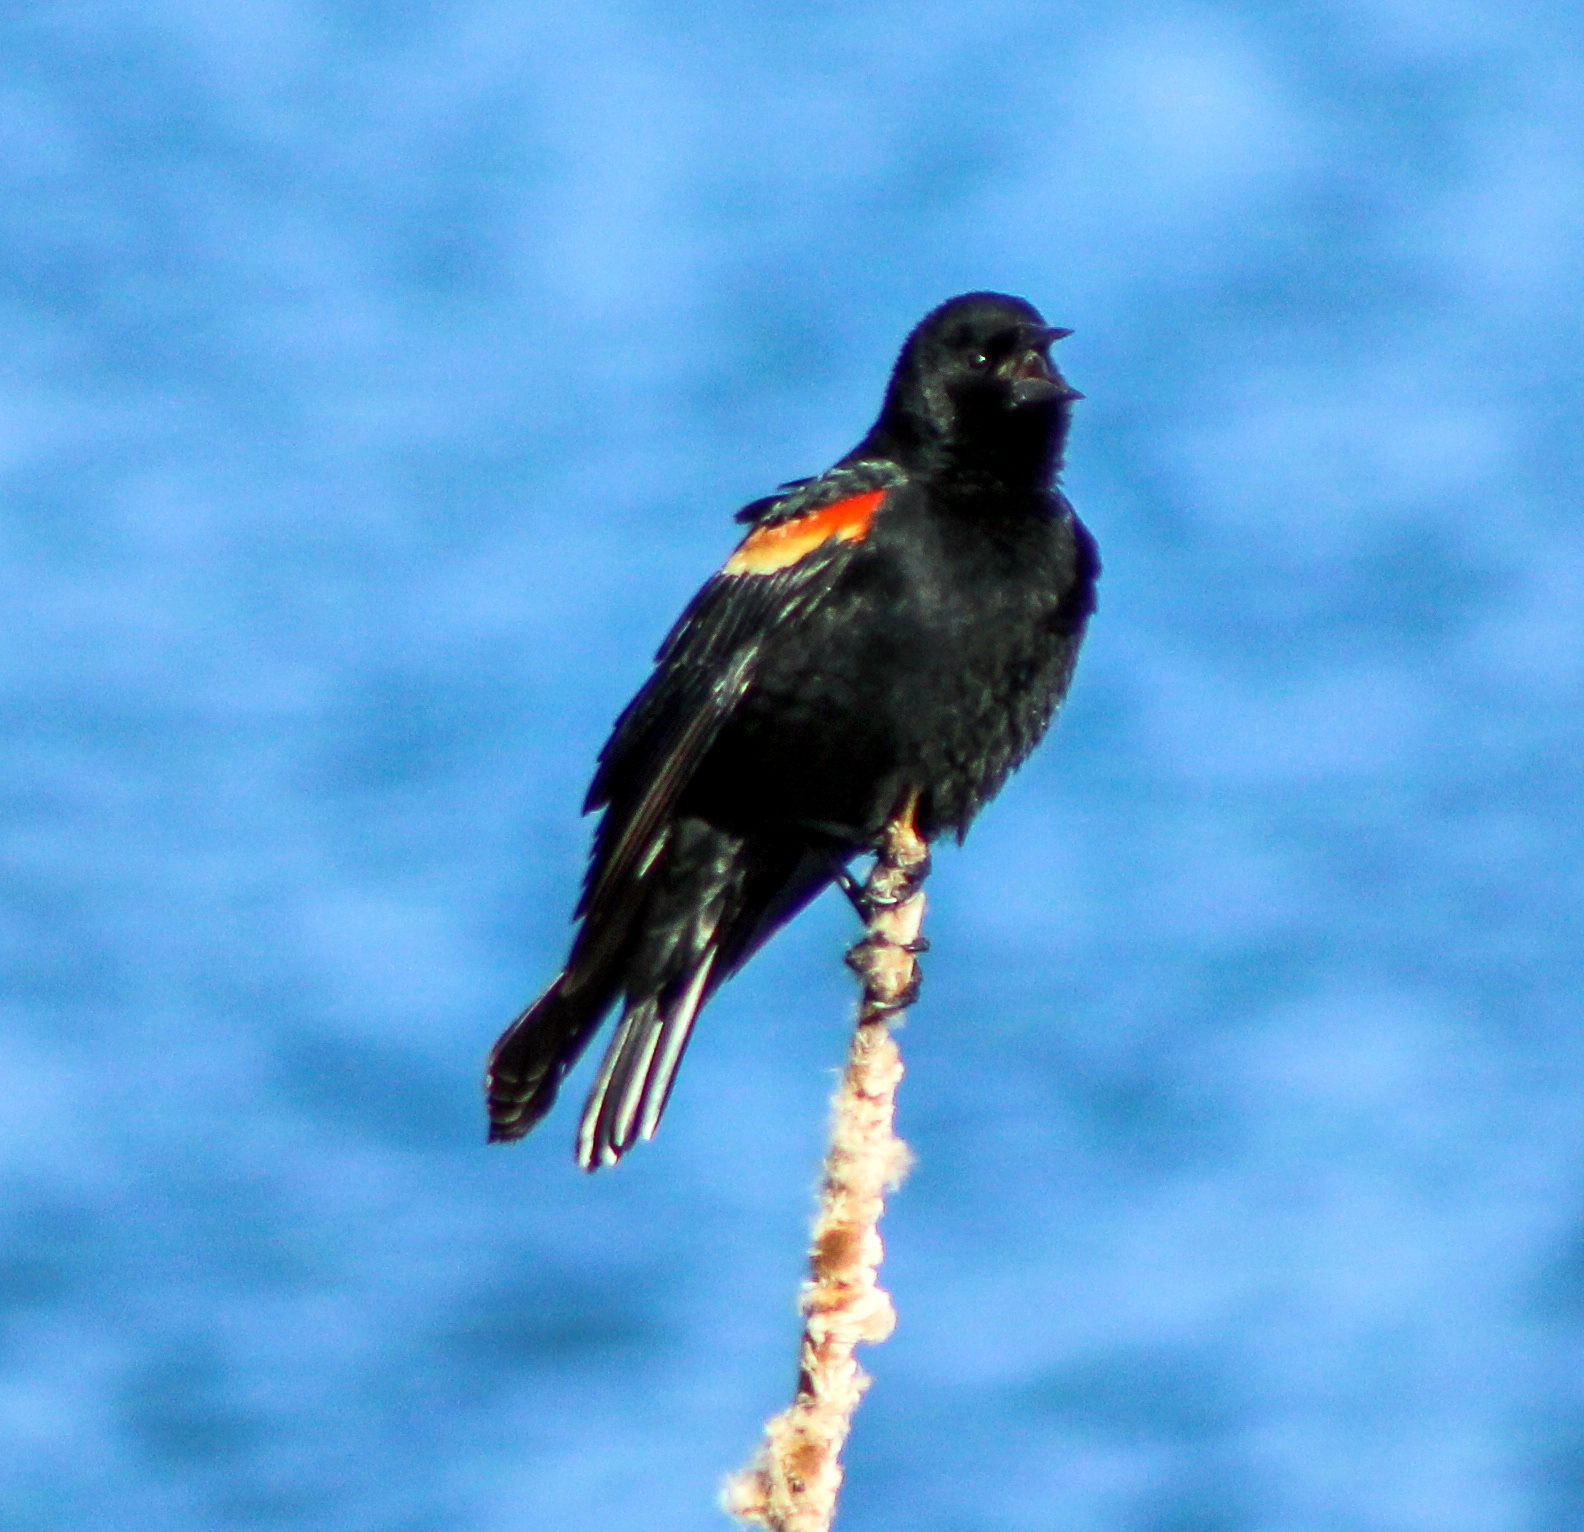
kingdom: Animalia
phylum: Chordata
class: Aves
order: Passeriformes
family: Icteridae
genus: Agelaius
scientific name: Agelaius phoeniceus
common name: Red-winged blackbird
